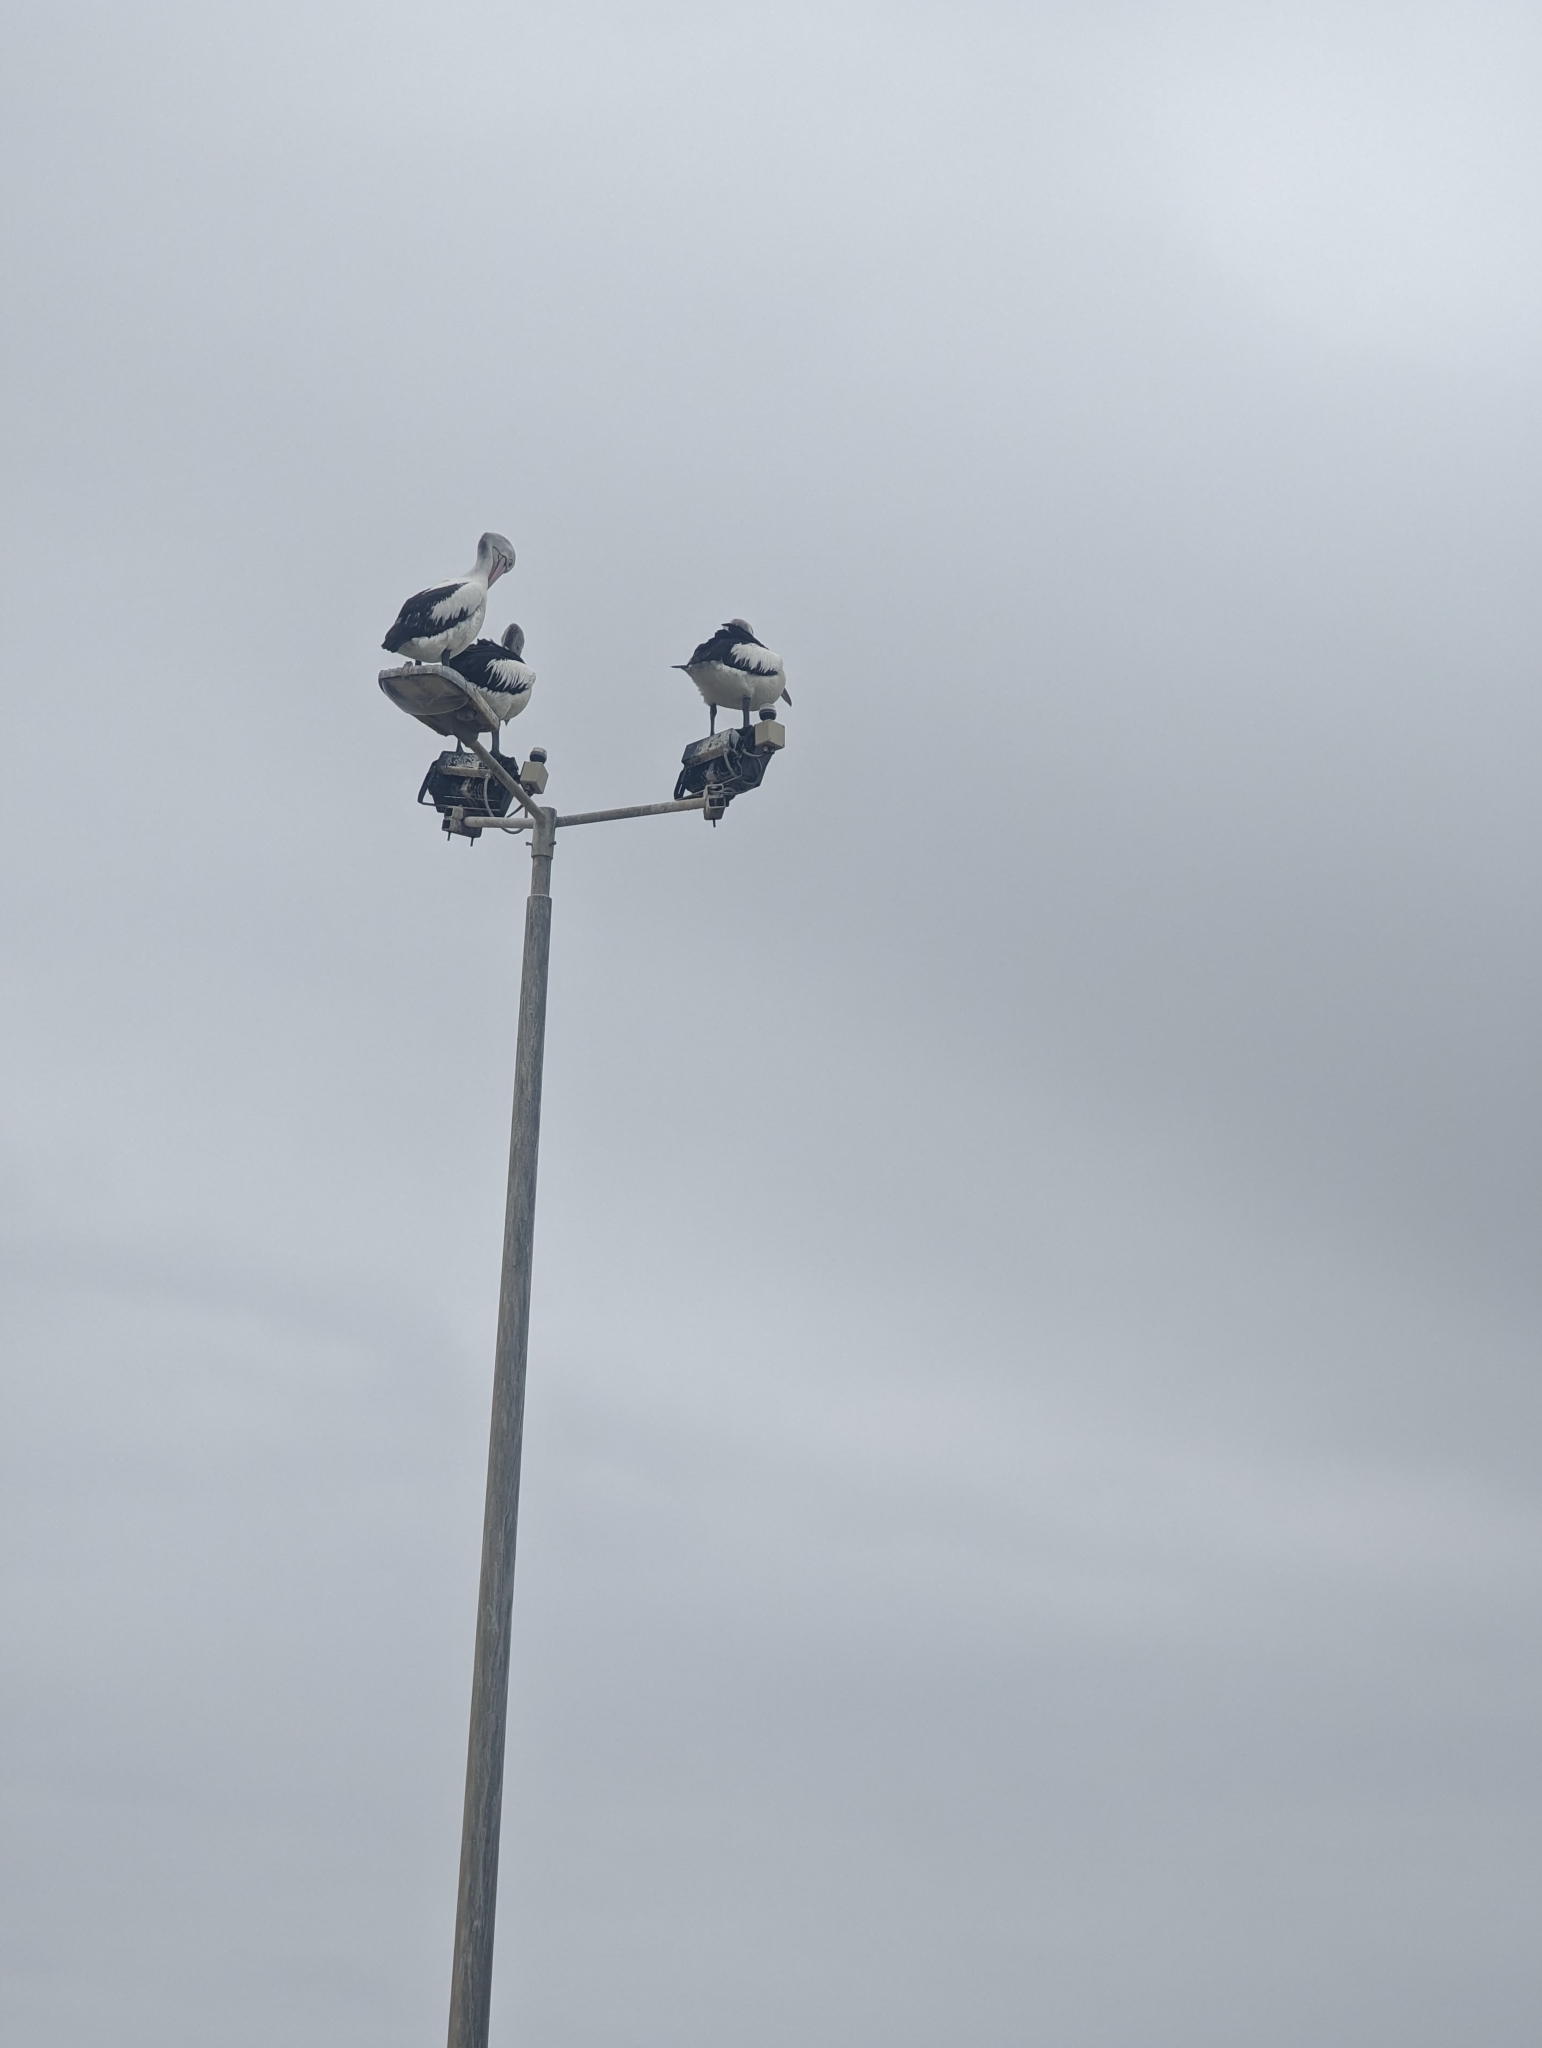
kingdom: Animalia
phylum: Chordata
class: Aves
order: Pelecaniformes
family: Pelecanidae
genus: Pelecanus
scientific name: Pelecanus conspicillatus
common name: Australian pelican
